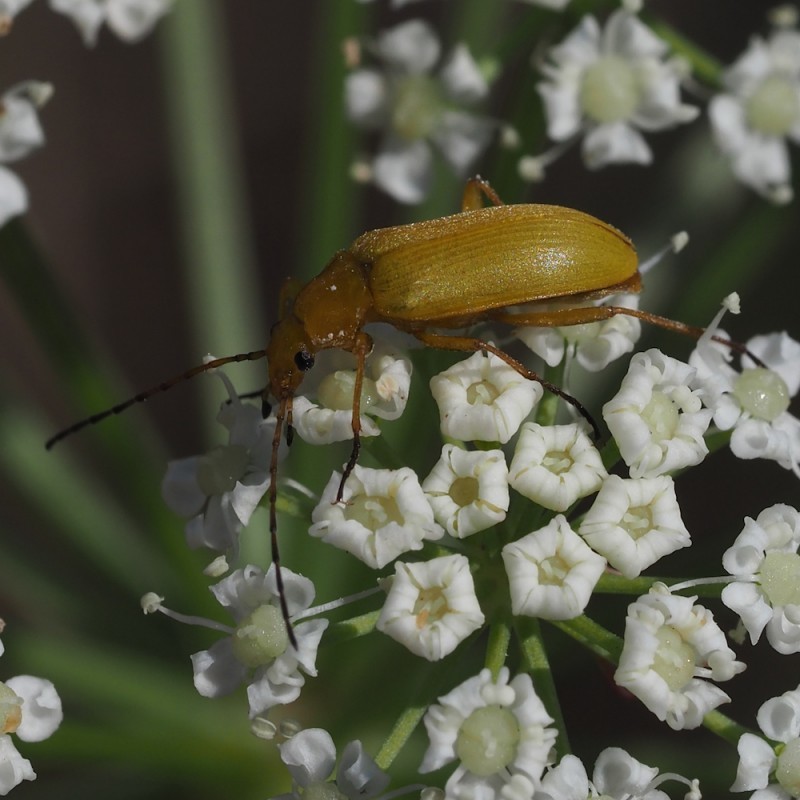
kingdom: Animalia
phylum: Arthropoda
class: Insecta
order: Coleoptera
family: Tenebrionidae
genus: Cteniopus
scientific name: Cteniopus sulphureus
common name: Sulphur beetle
